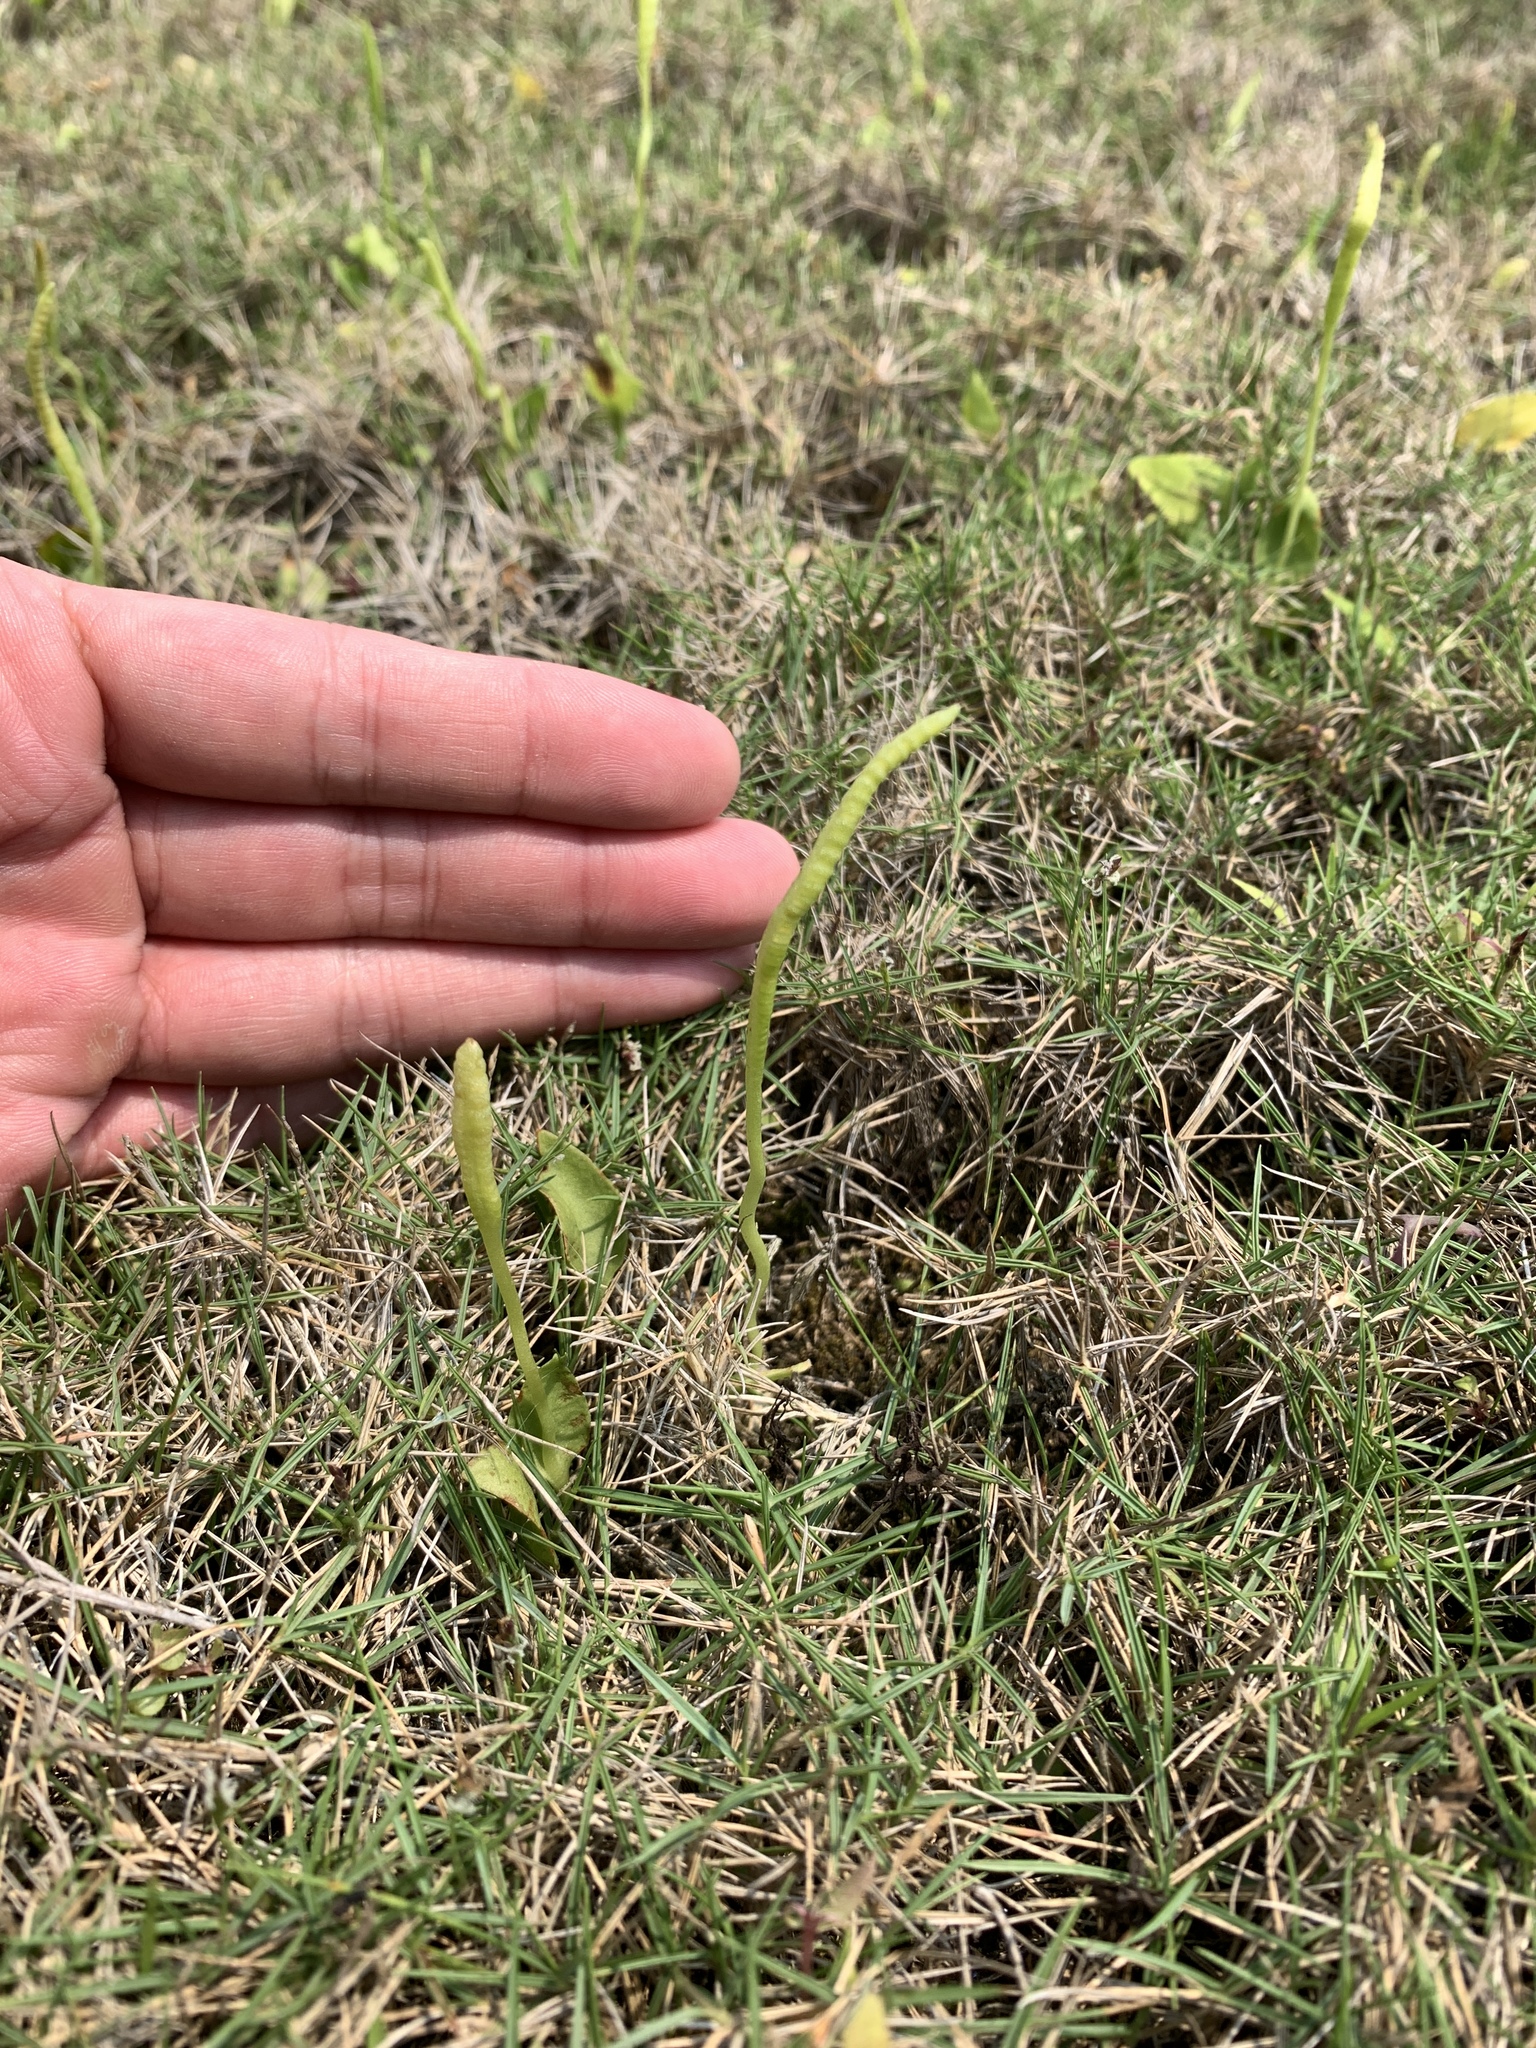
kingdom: Plantae
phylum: Tracheophyta
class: Polypodiopsida
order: Ophioglossales
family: Ophioglossaceae
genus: Ophioglossum
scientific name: Ophioglossum petiolatum
